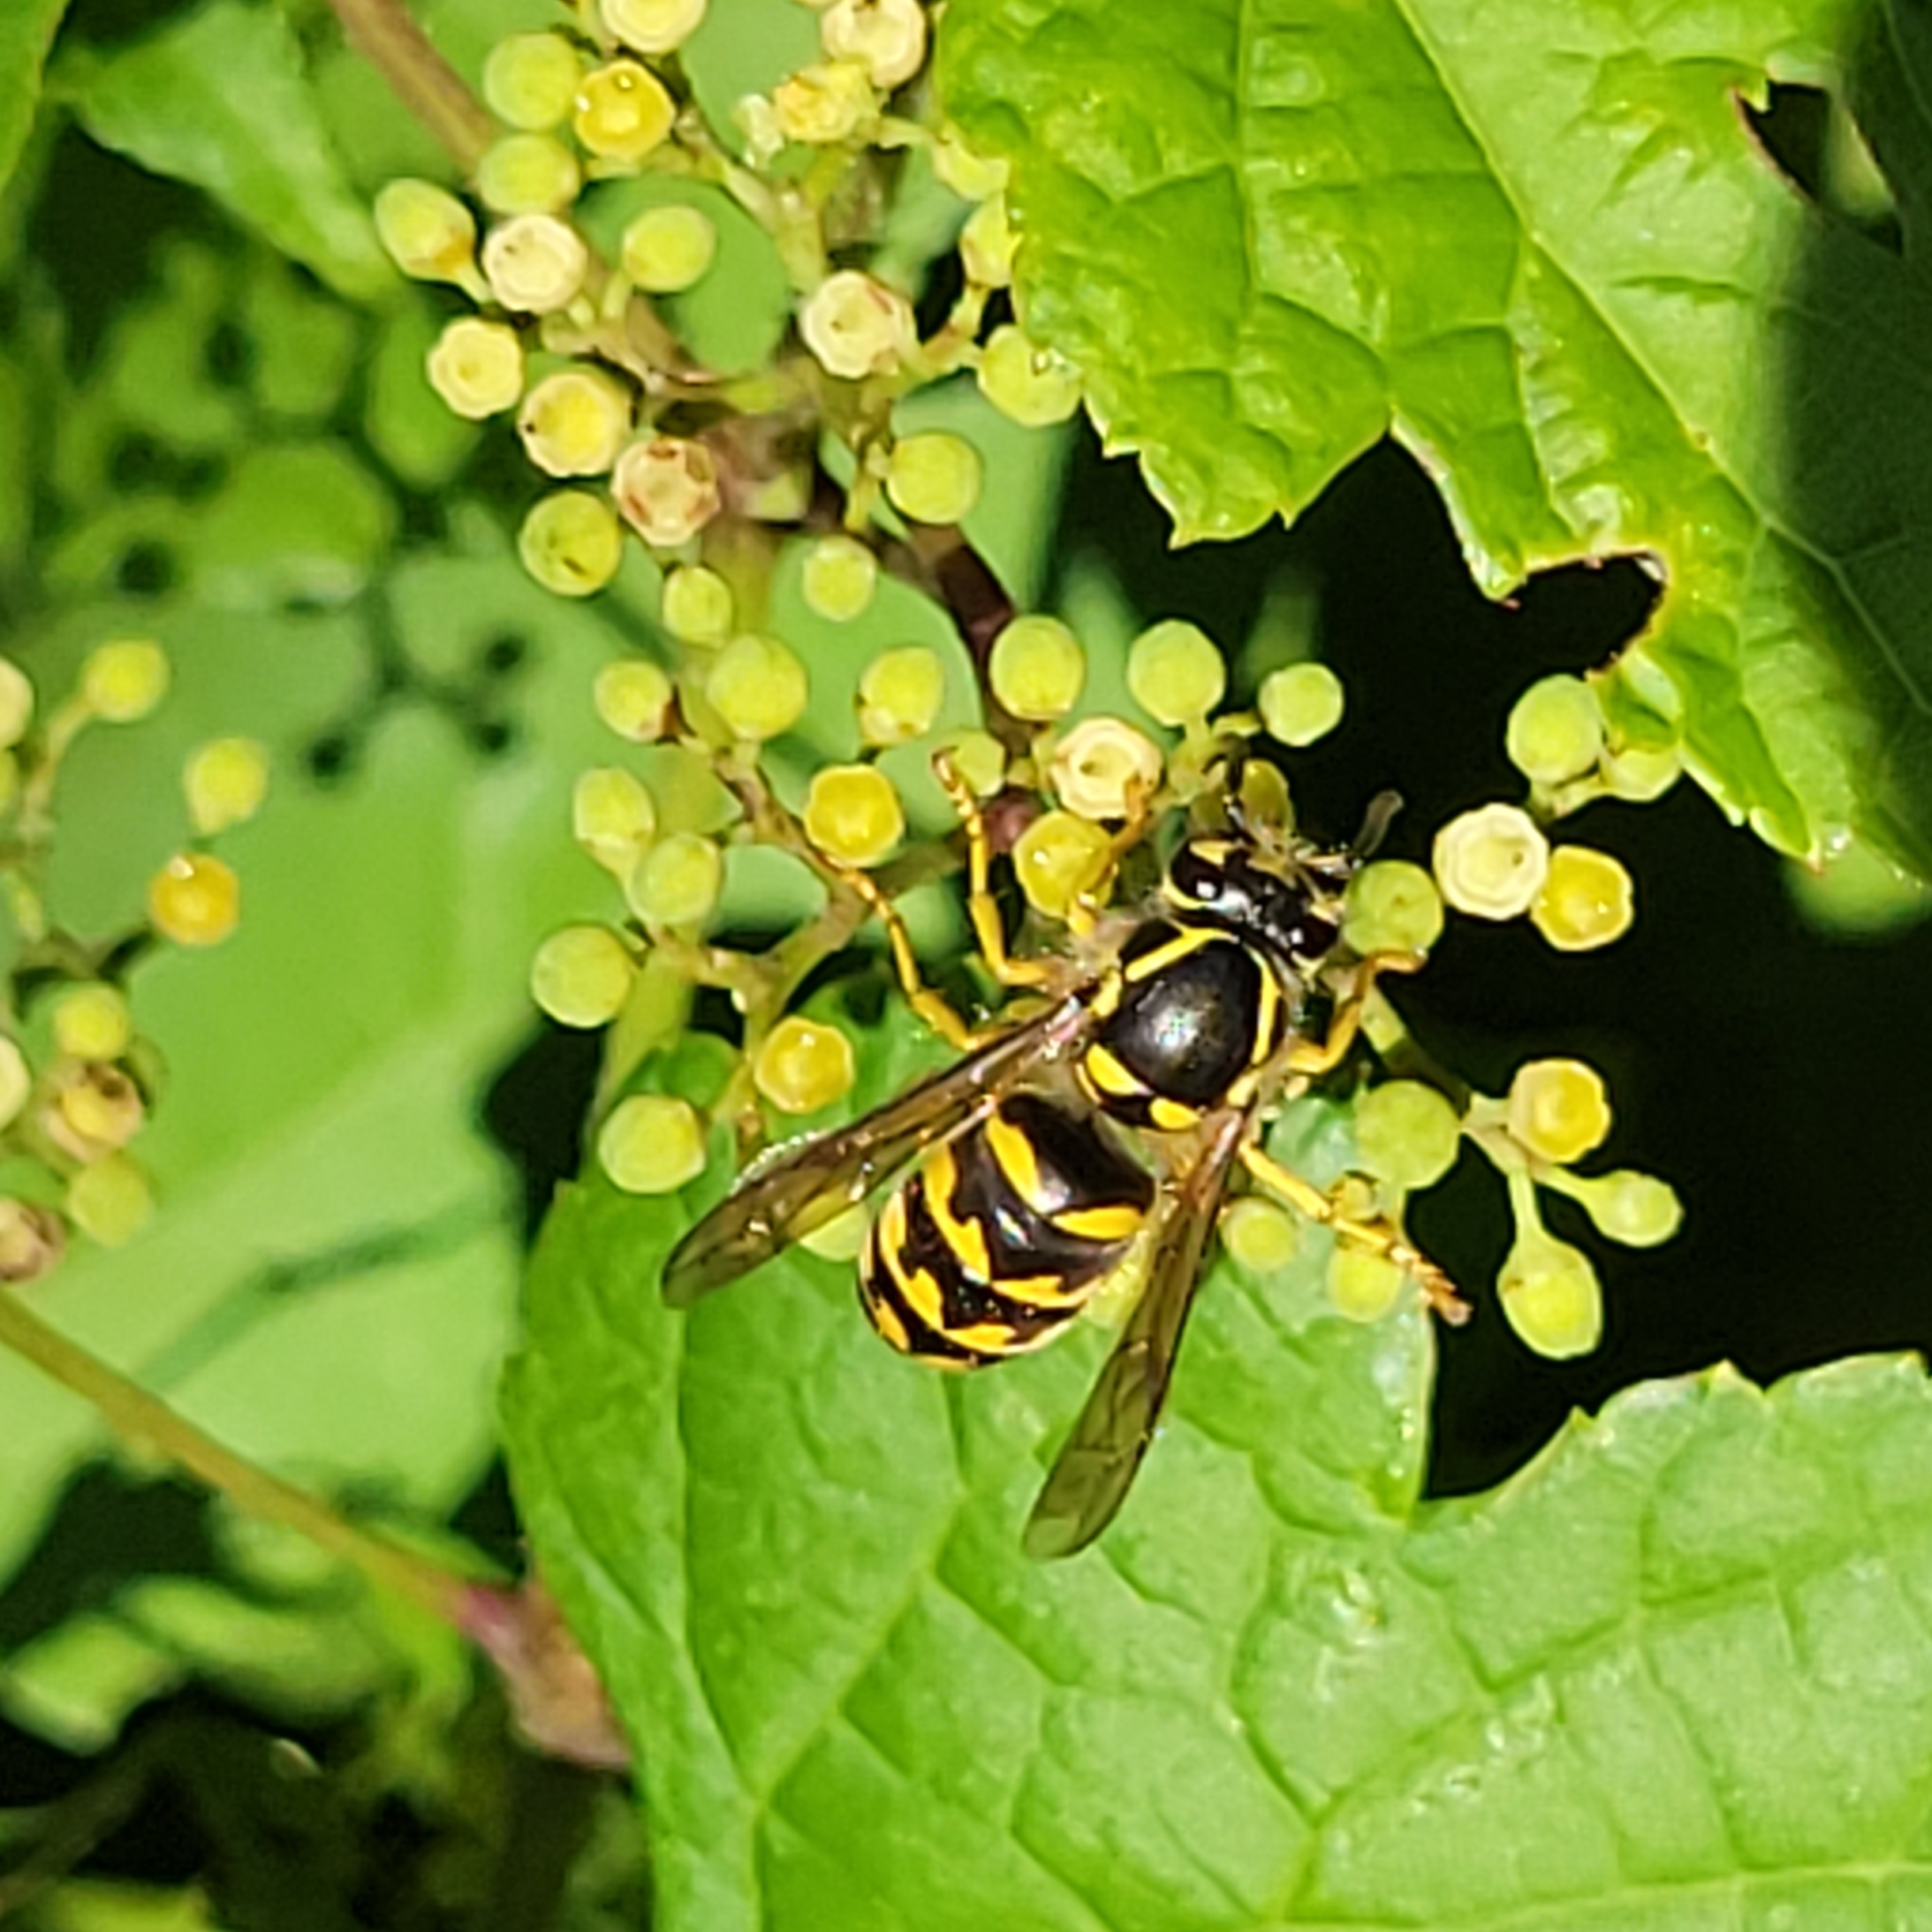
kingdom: Animalia
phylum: Arthropoda
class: Insecta
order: Hymenoptera
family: Vespidae
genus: Dolichovespula
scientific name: Dolichovespula arenaria
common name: Aerial yellowjacket
